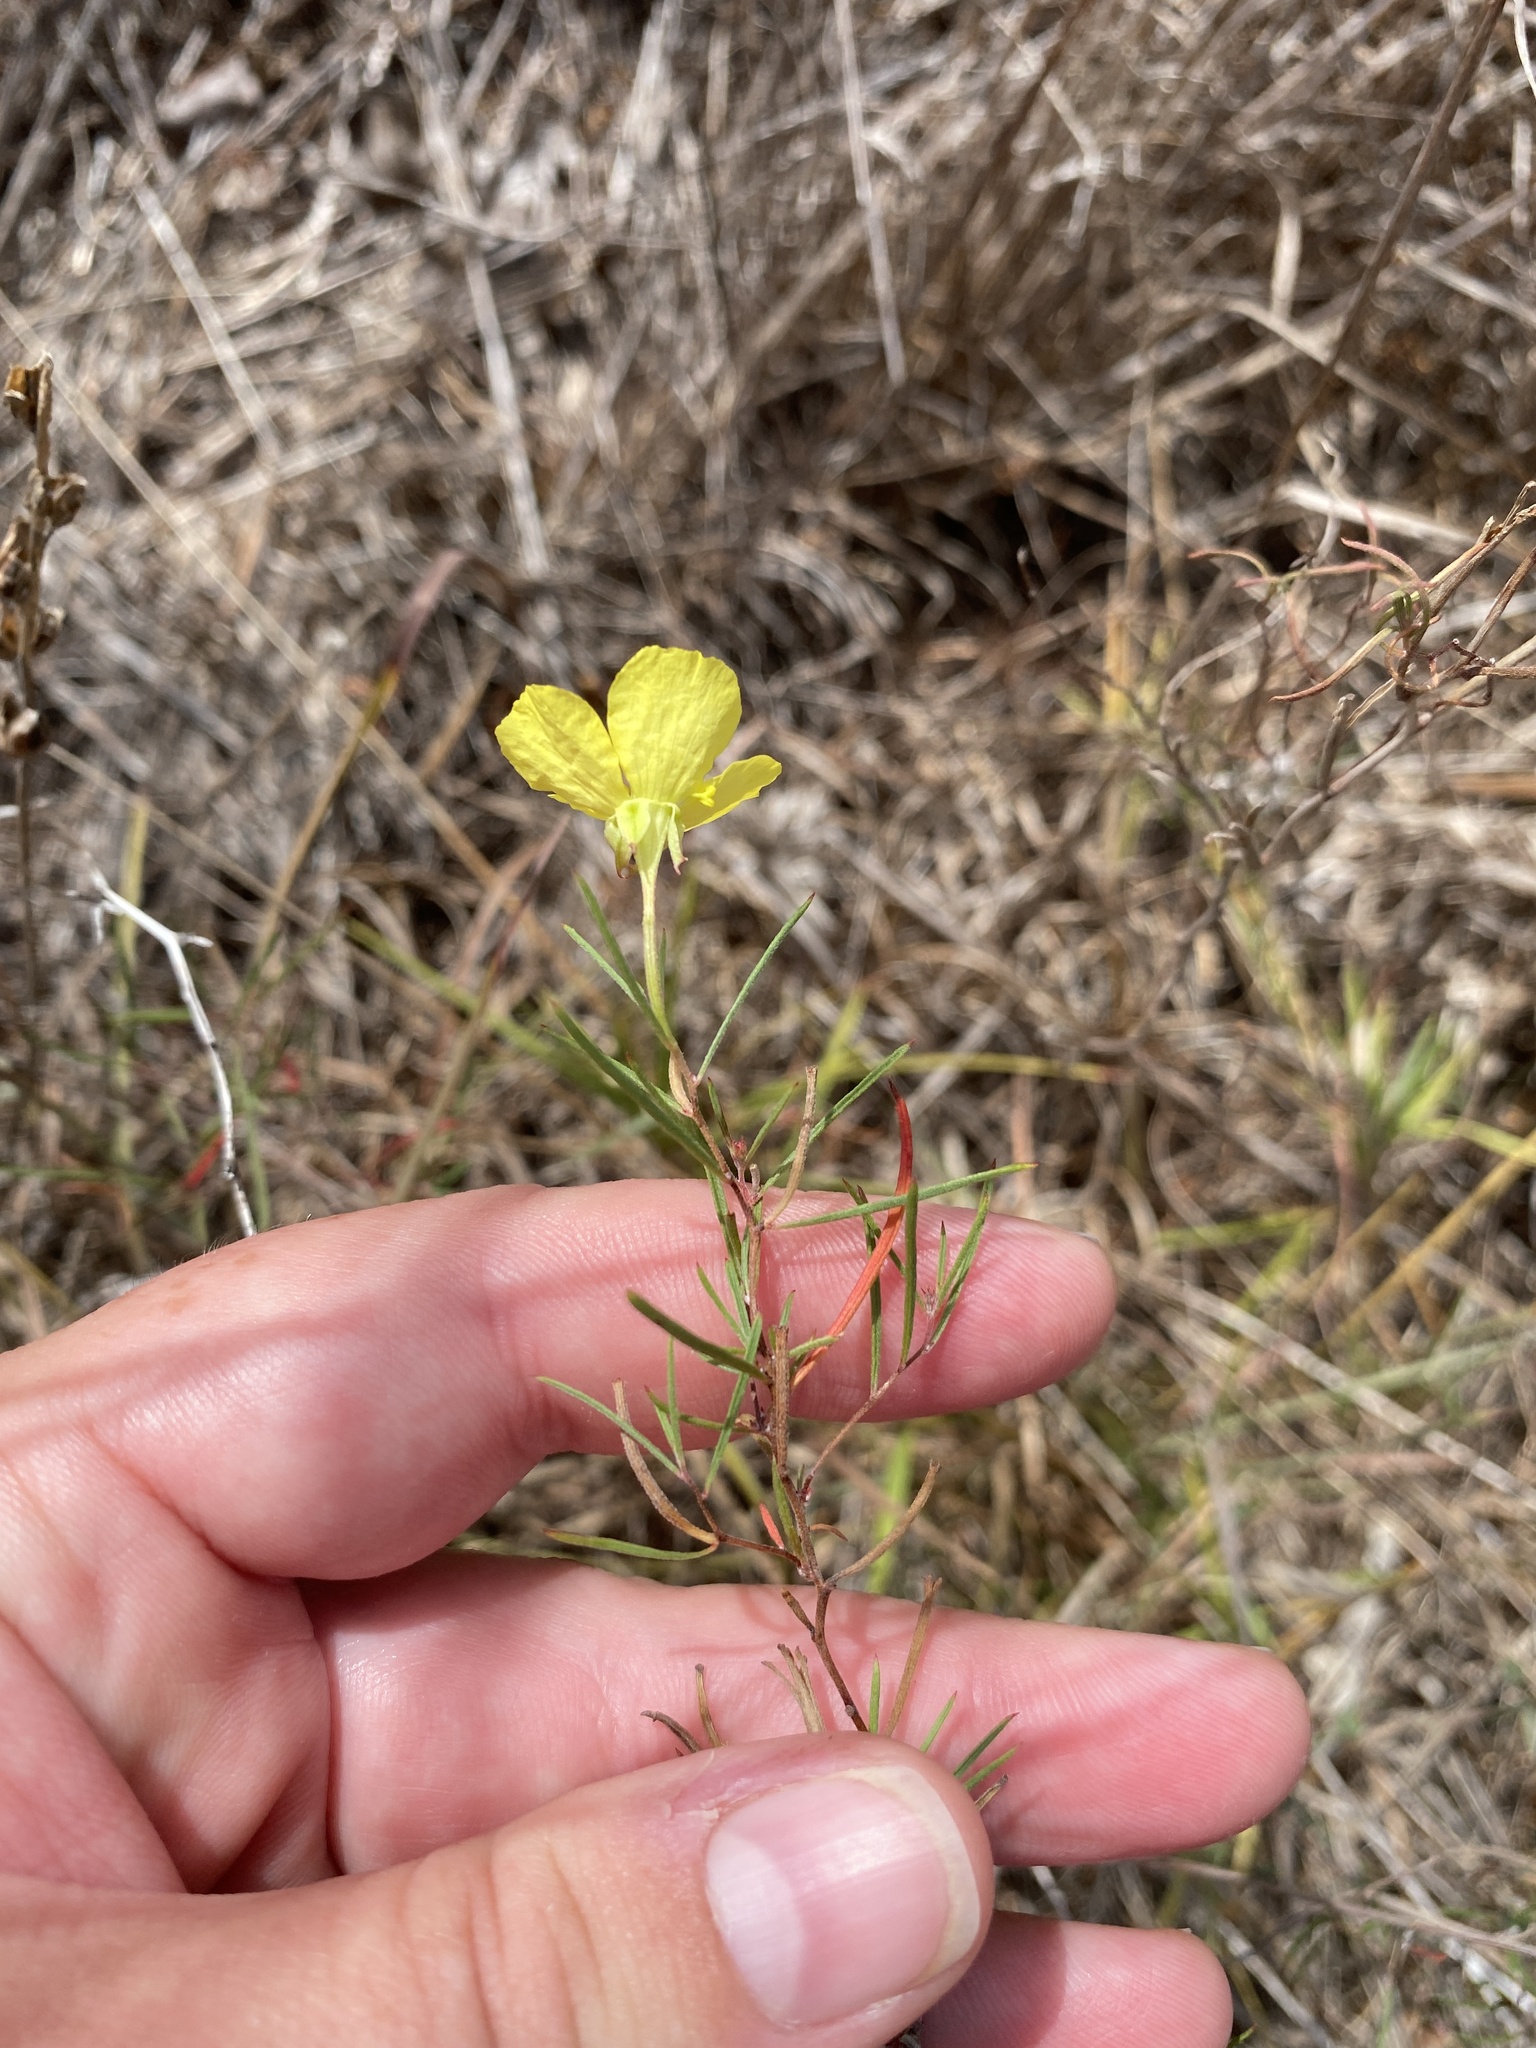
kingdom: Plantae
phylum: Tracheophyta
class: Magnoliopsida
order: Myrtales
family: Onagraceae
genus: Oenothera
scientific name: Oenothera capillifolia
